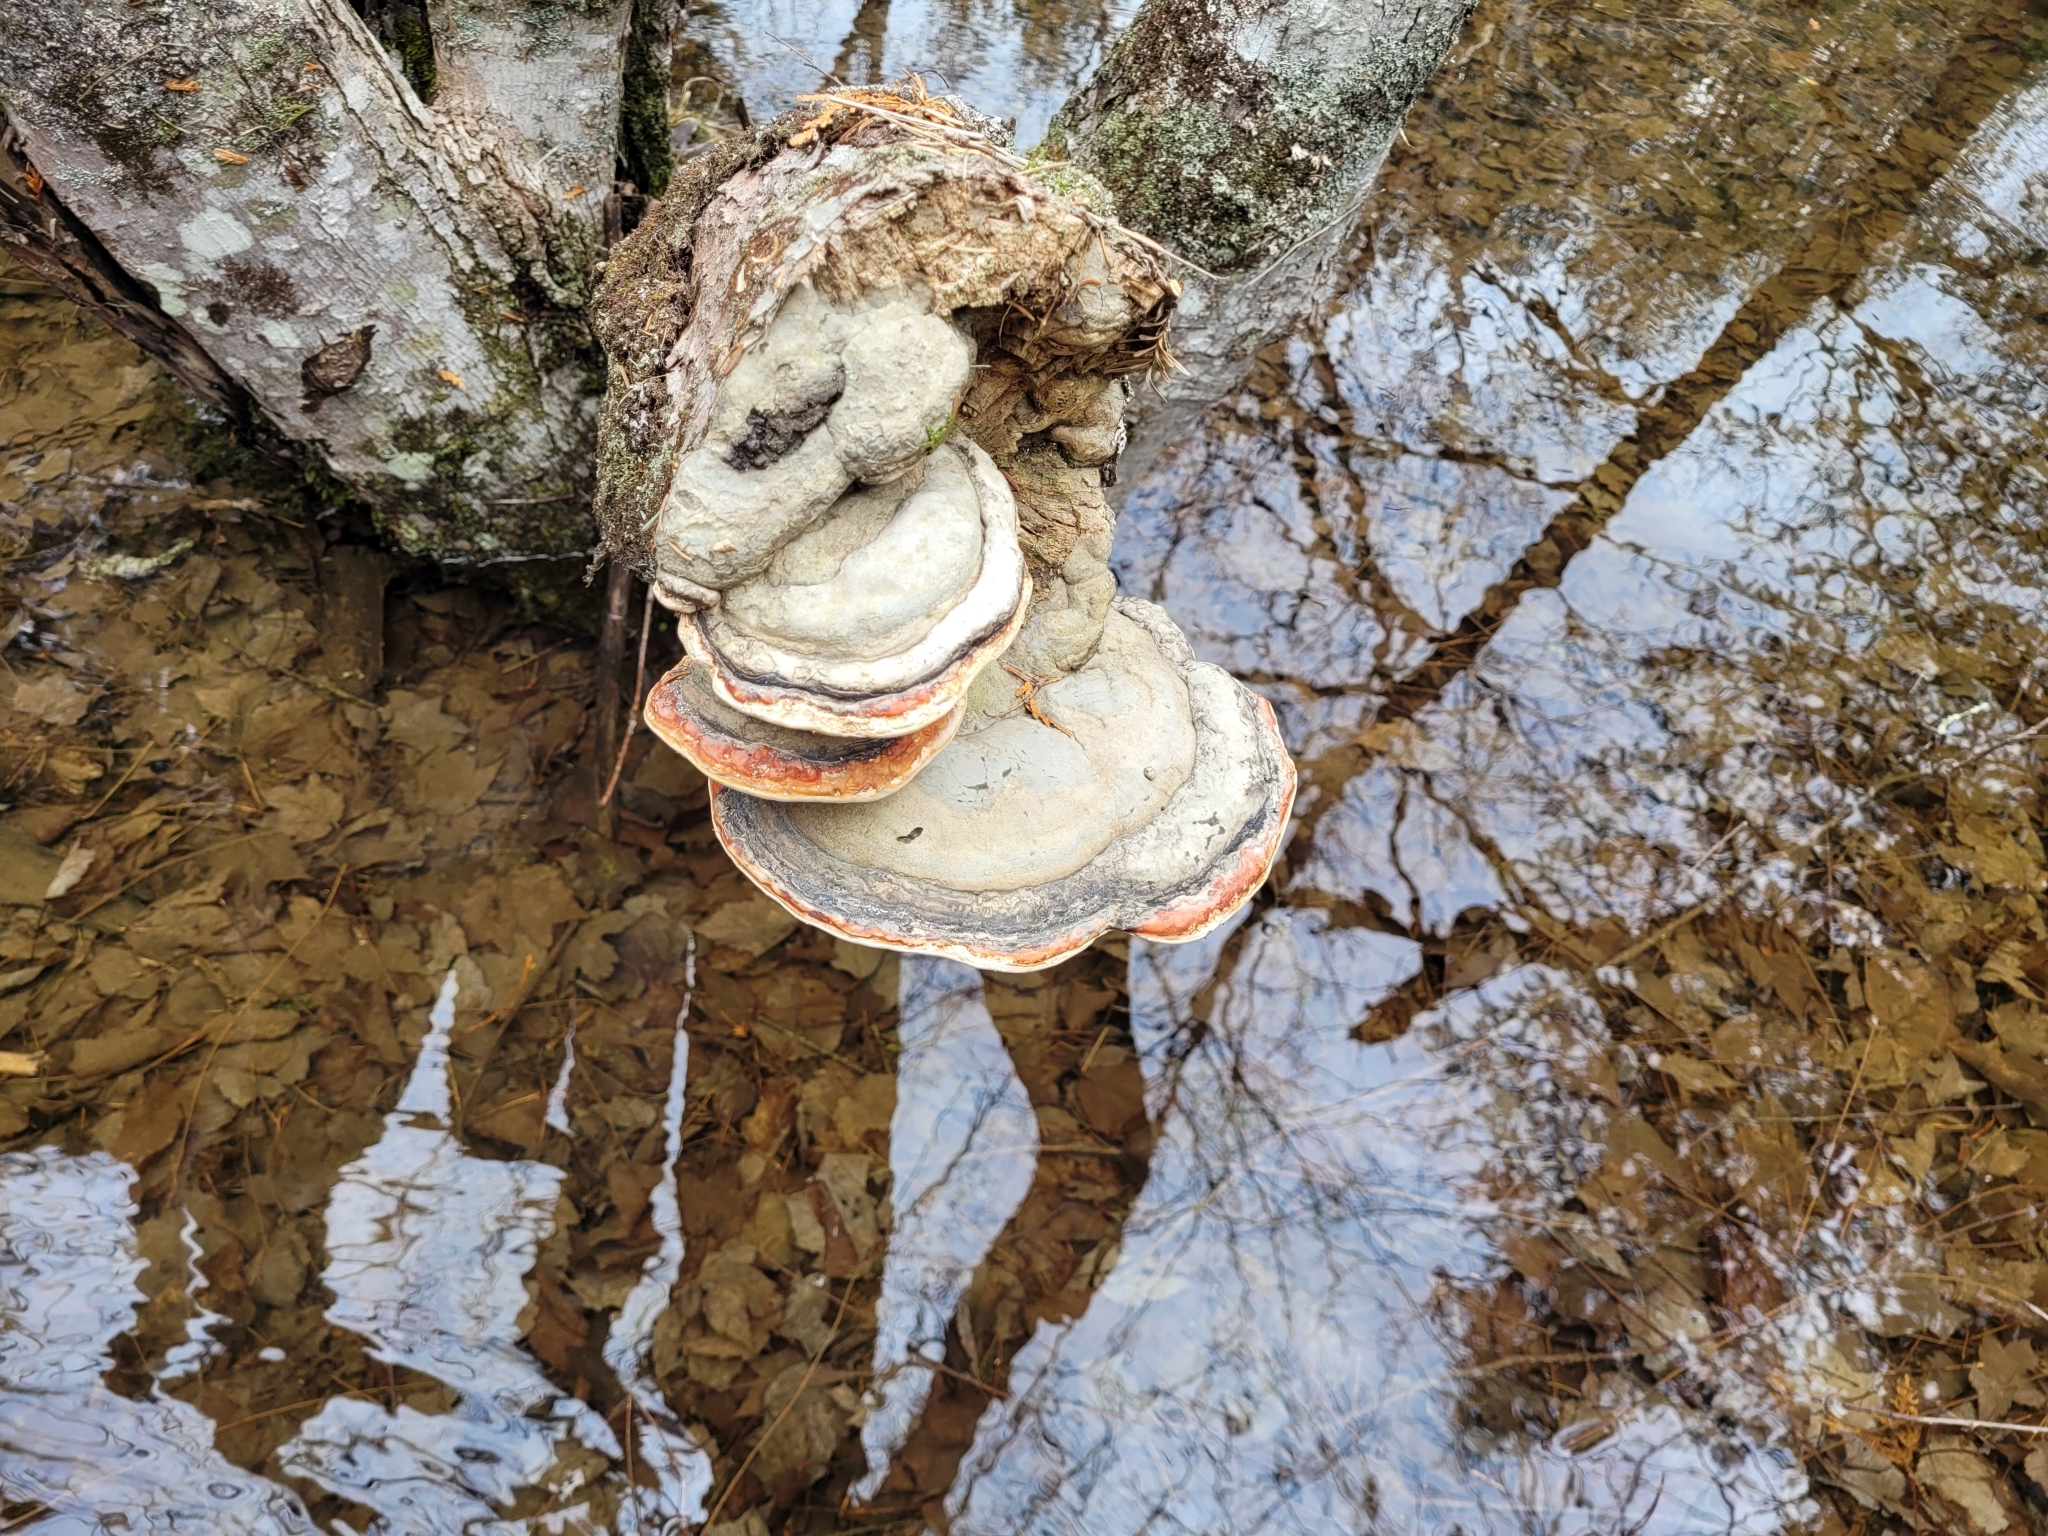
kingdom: Fungi
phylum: Basidiomycota
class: Agaricomycetes
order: Polyporales
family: Fomitopsidaceae
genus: Fomitopsis
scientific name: Fomitopsis mounceae
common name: Northern red belt
